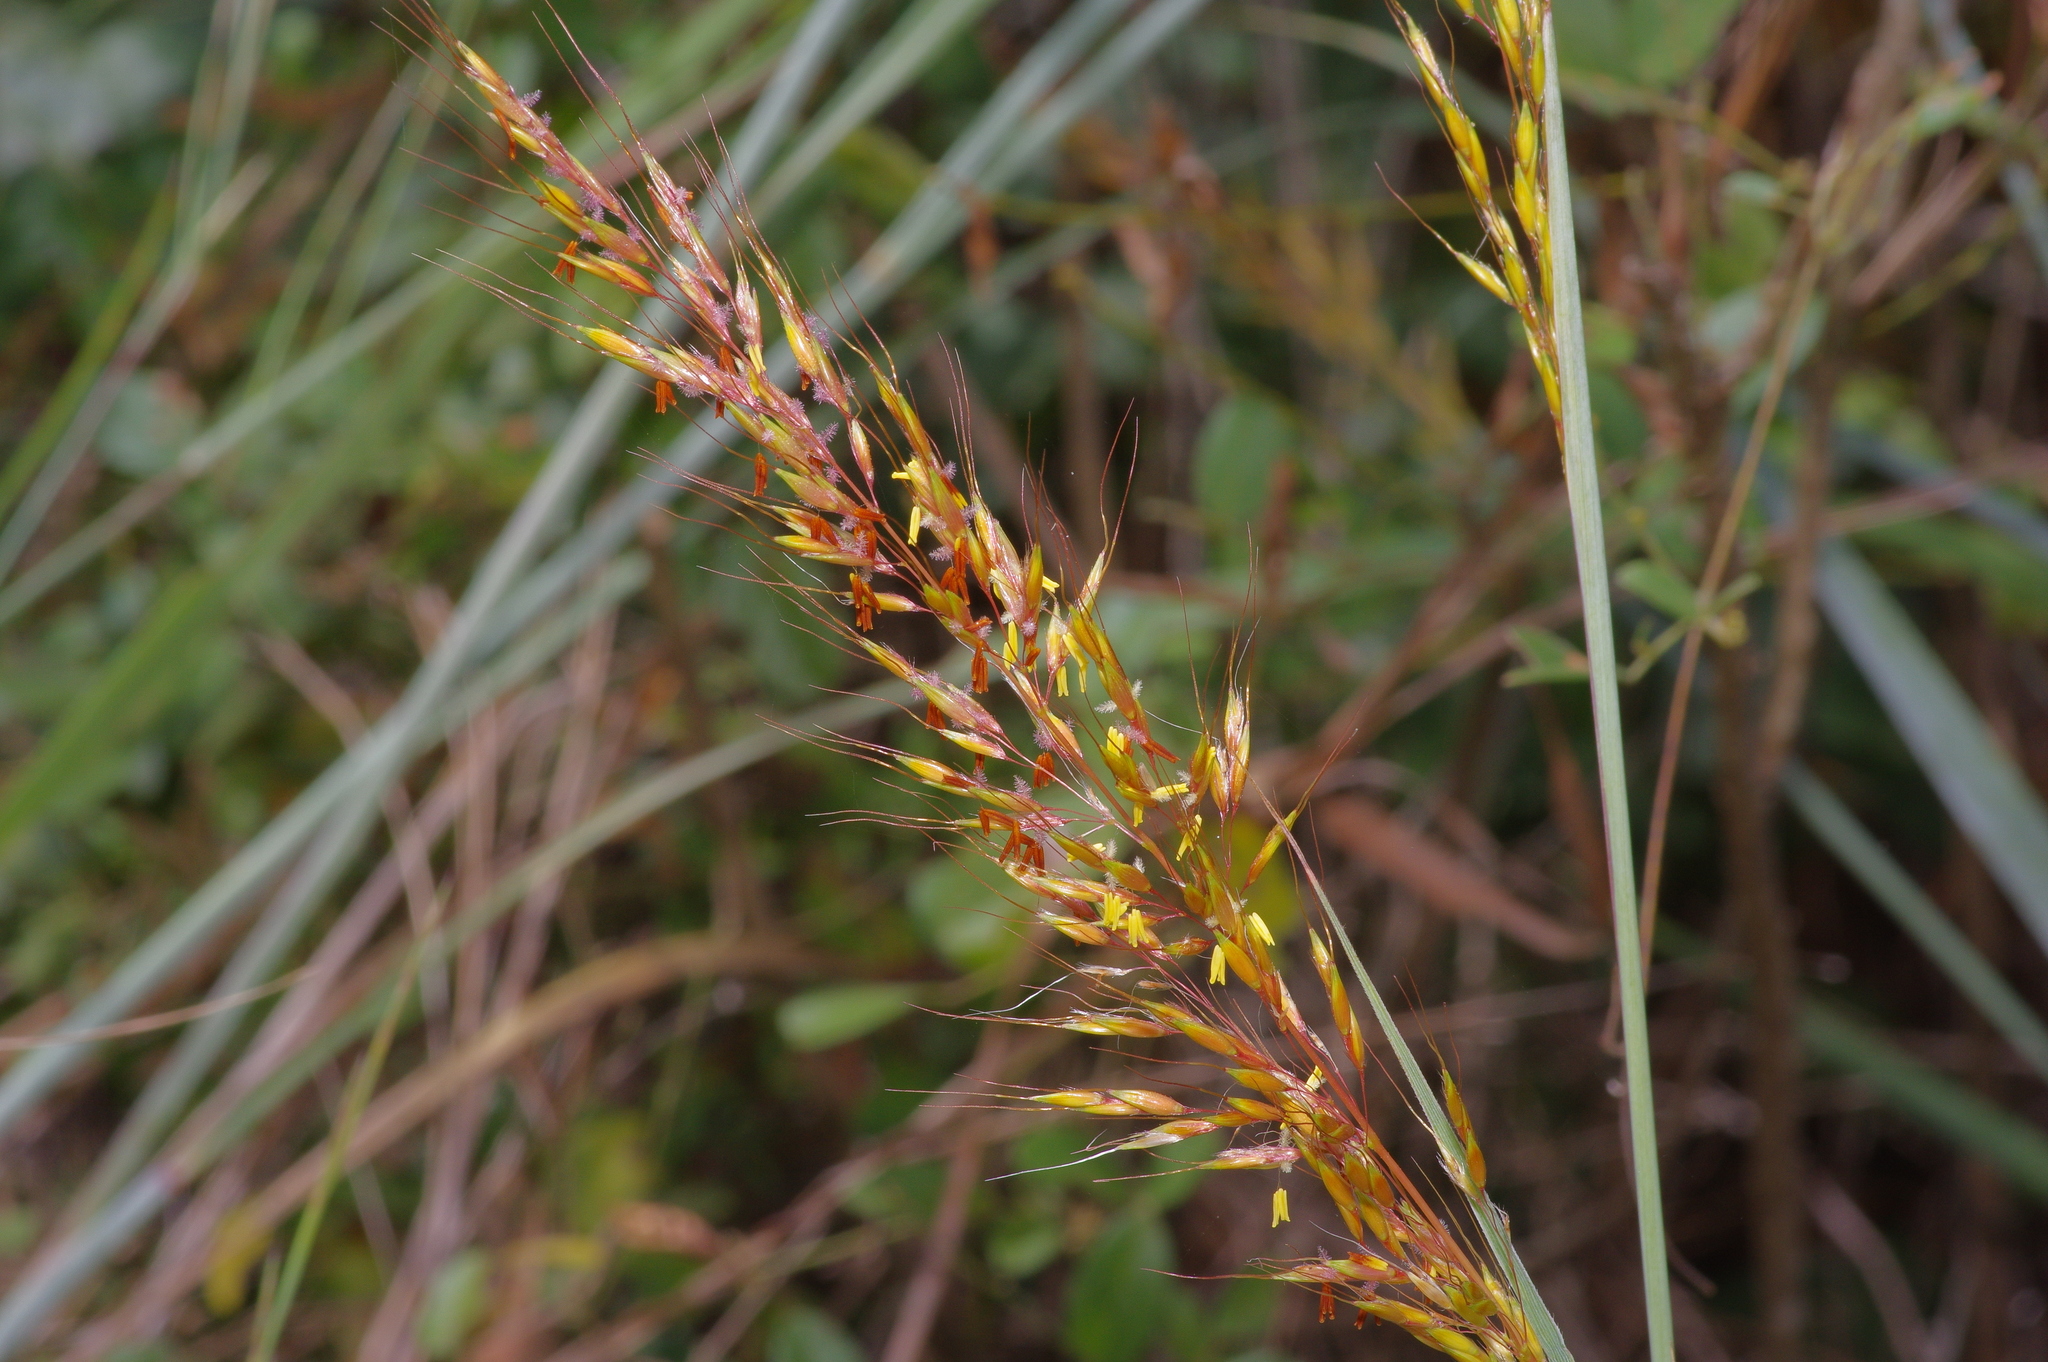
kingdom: Plantae
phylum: Tracheophyta
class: Liliopsida
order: Poales
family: Poaceae
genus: Sorghastrum
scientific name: Sorghastrum nutans
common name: Indian grass
